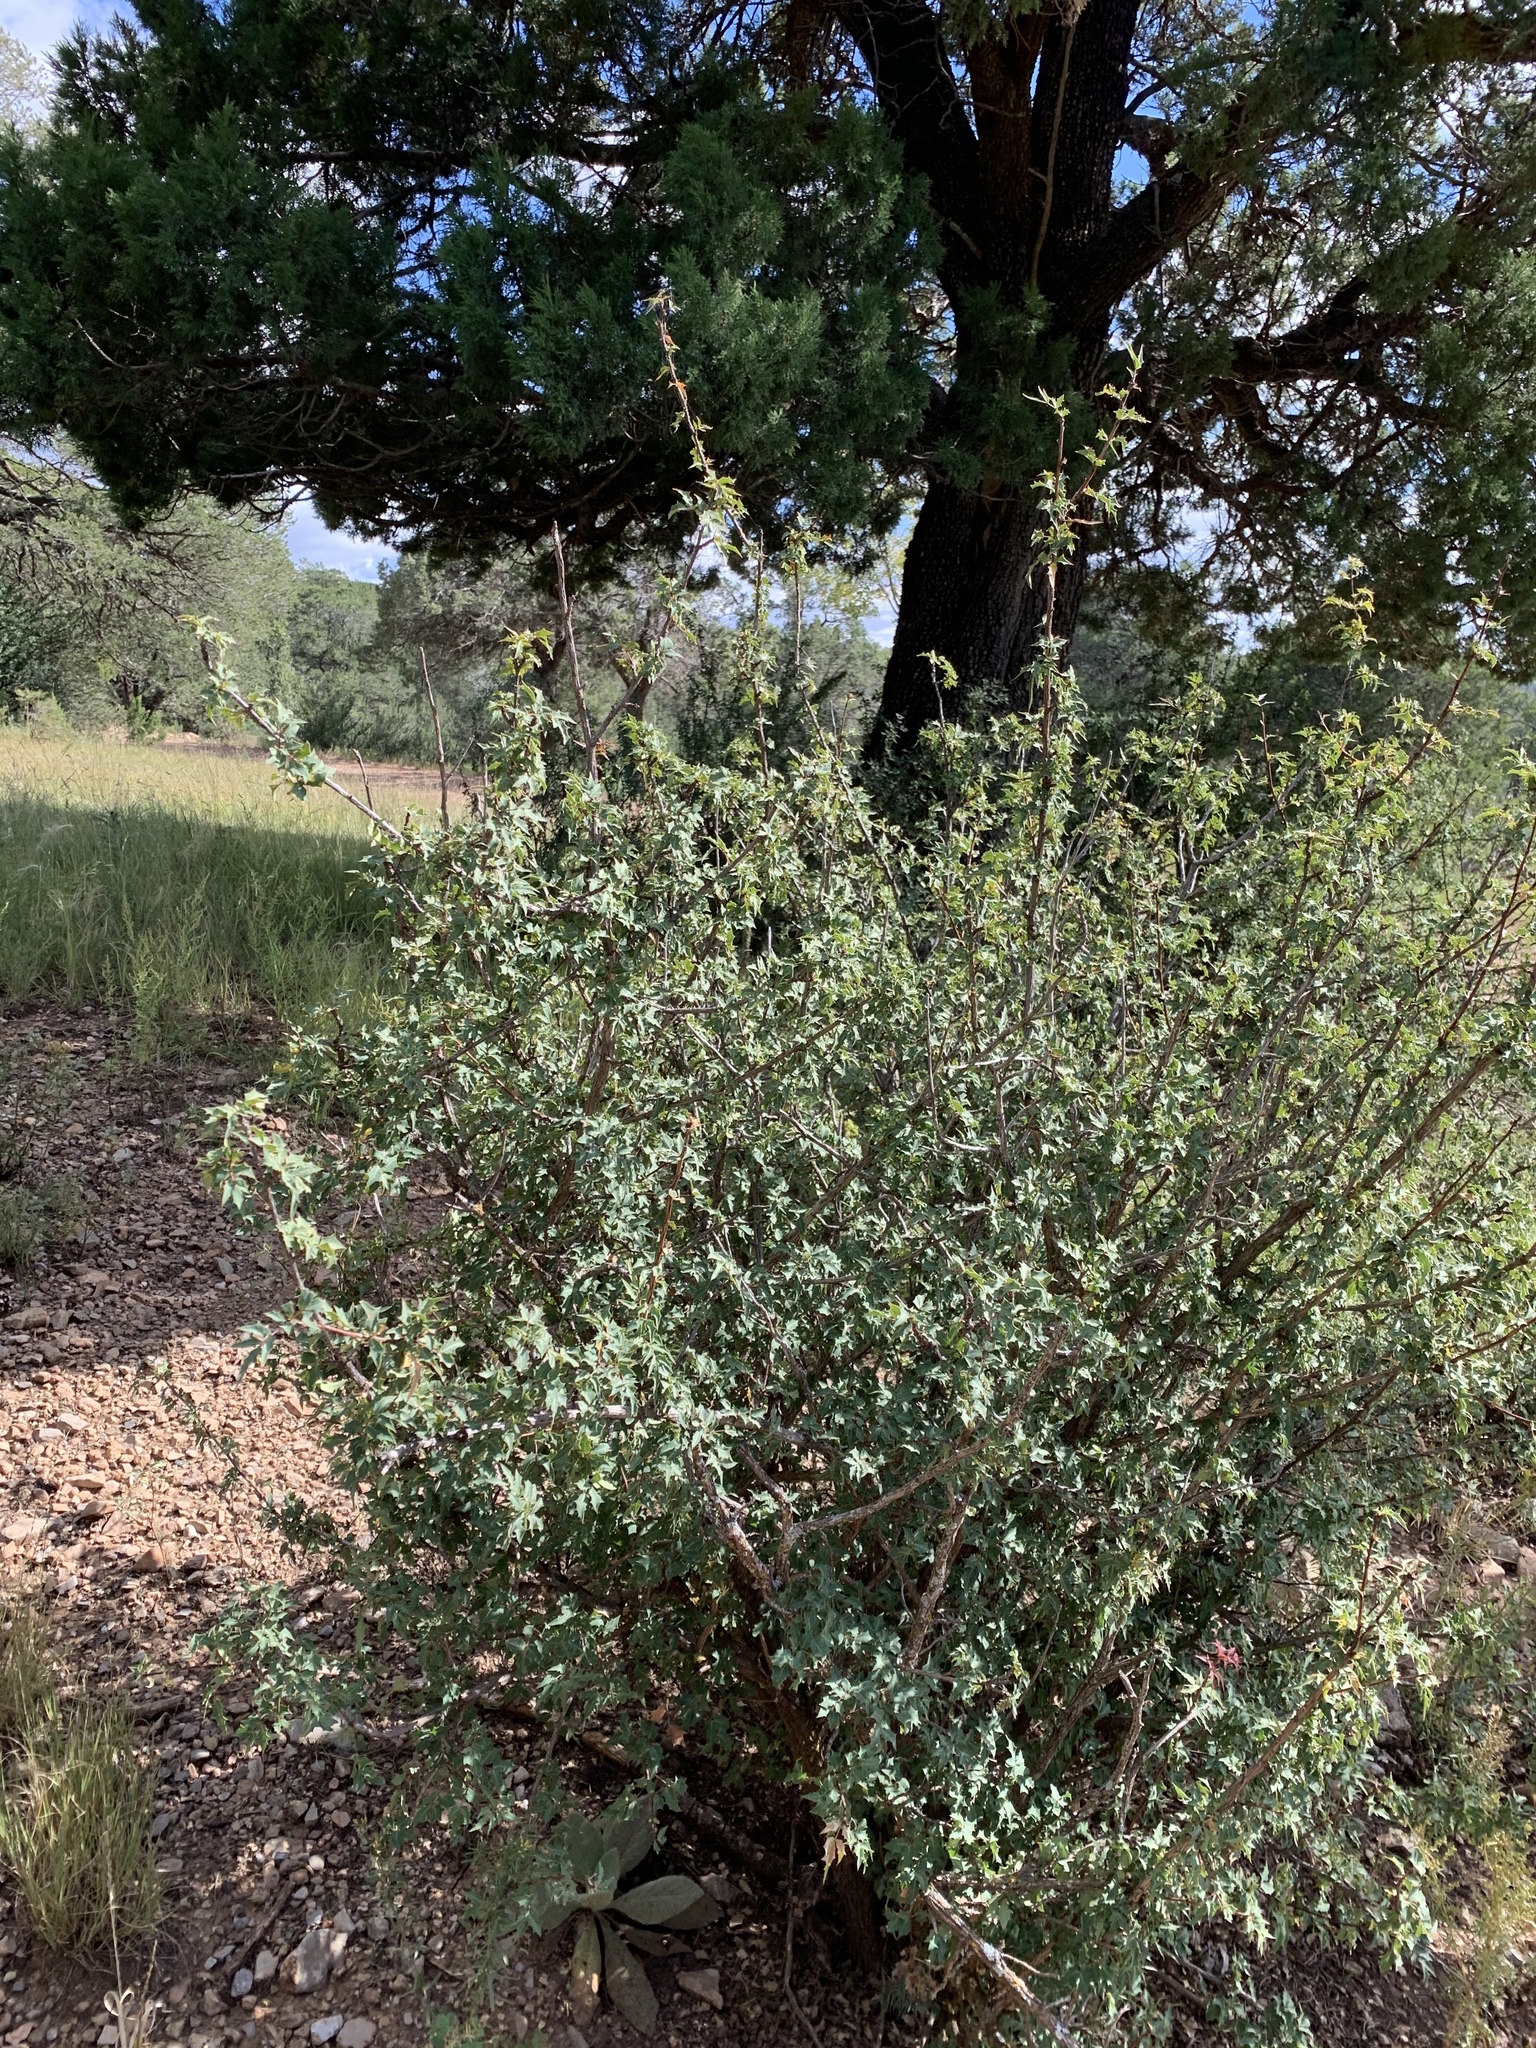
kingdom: Plantae
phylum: Tracheophyta
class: Magnoliopsida
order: Ranunculales
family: Berberidaceae
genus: Alloberberis
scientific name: Alloberberis haematocarpa
